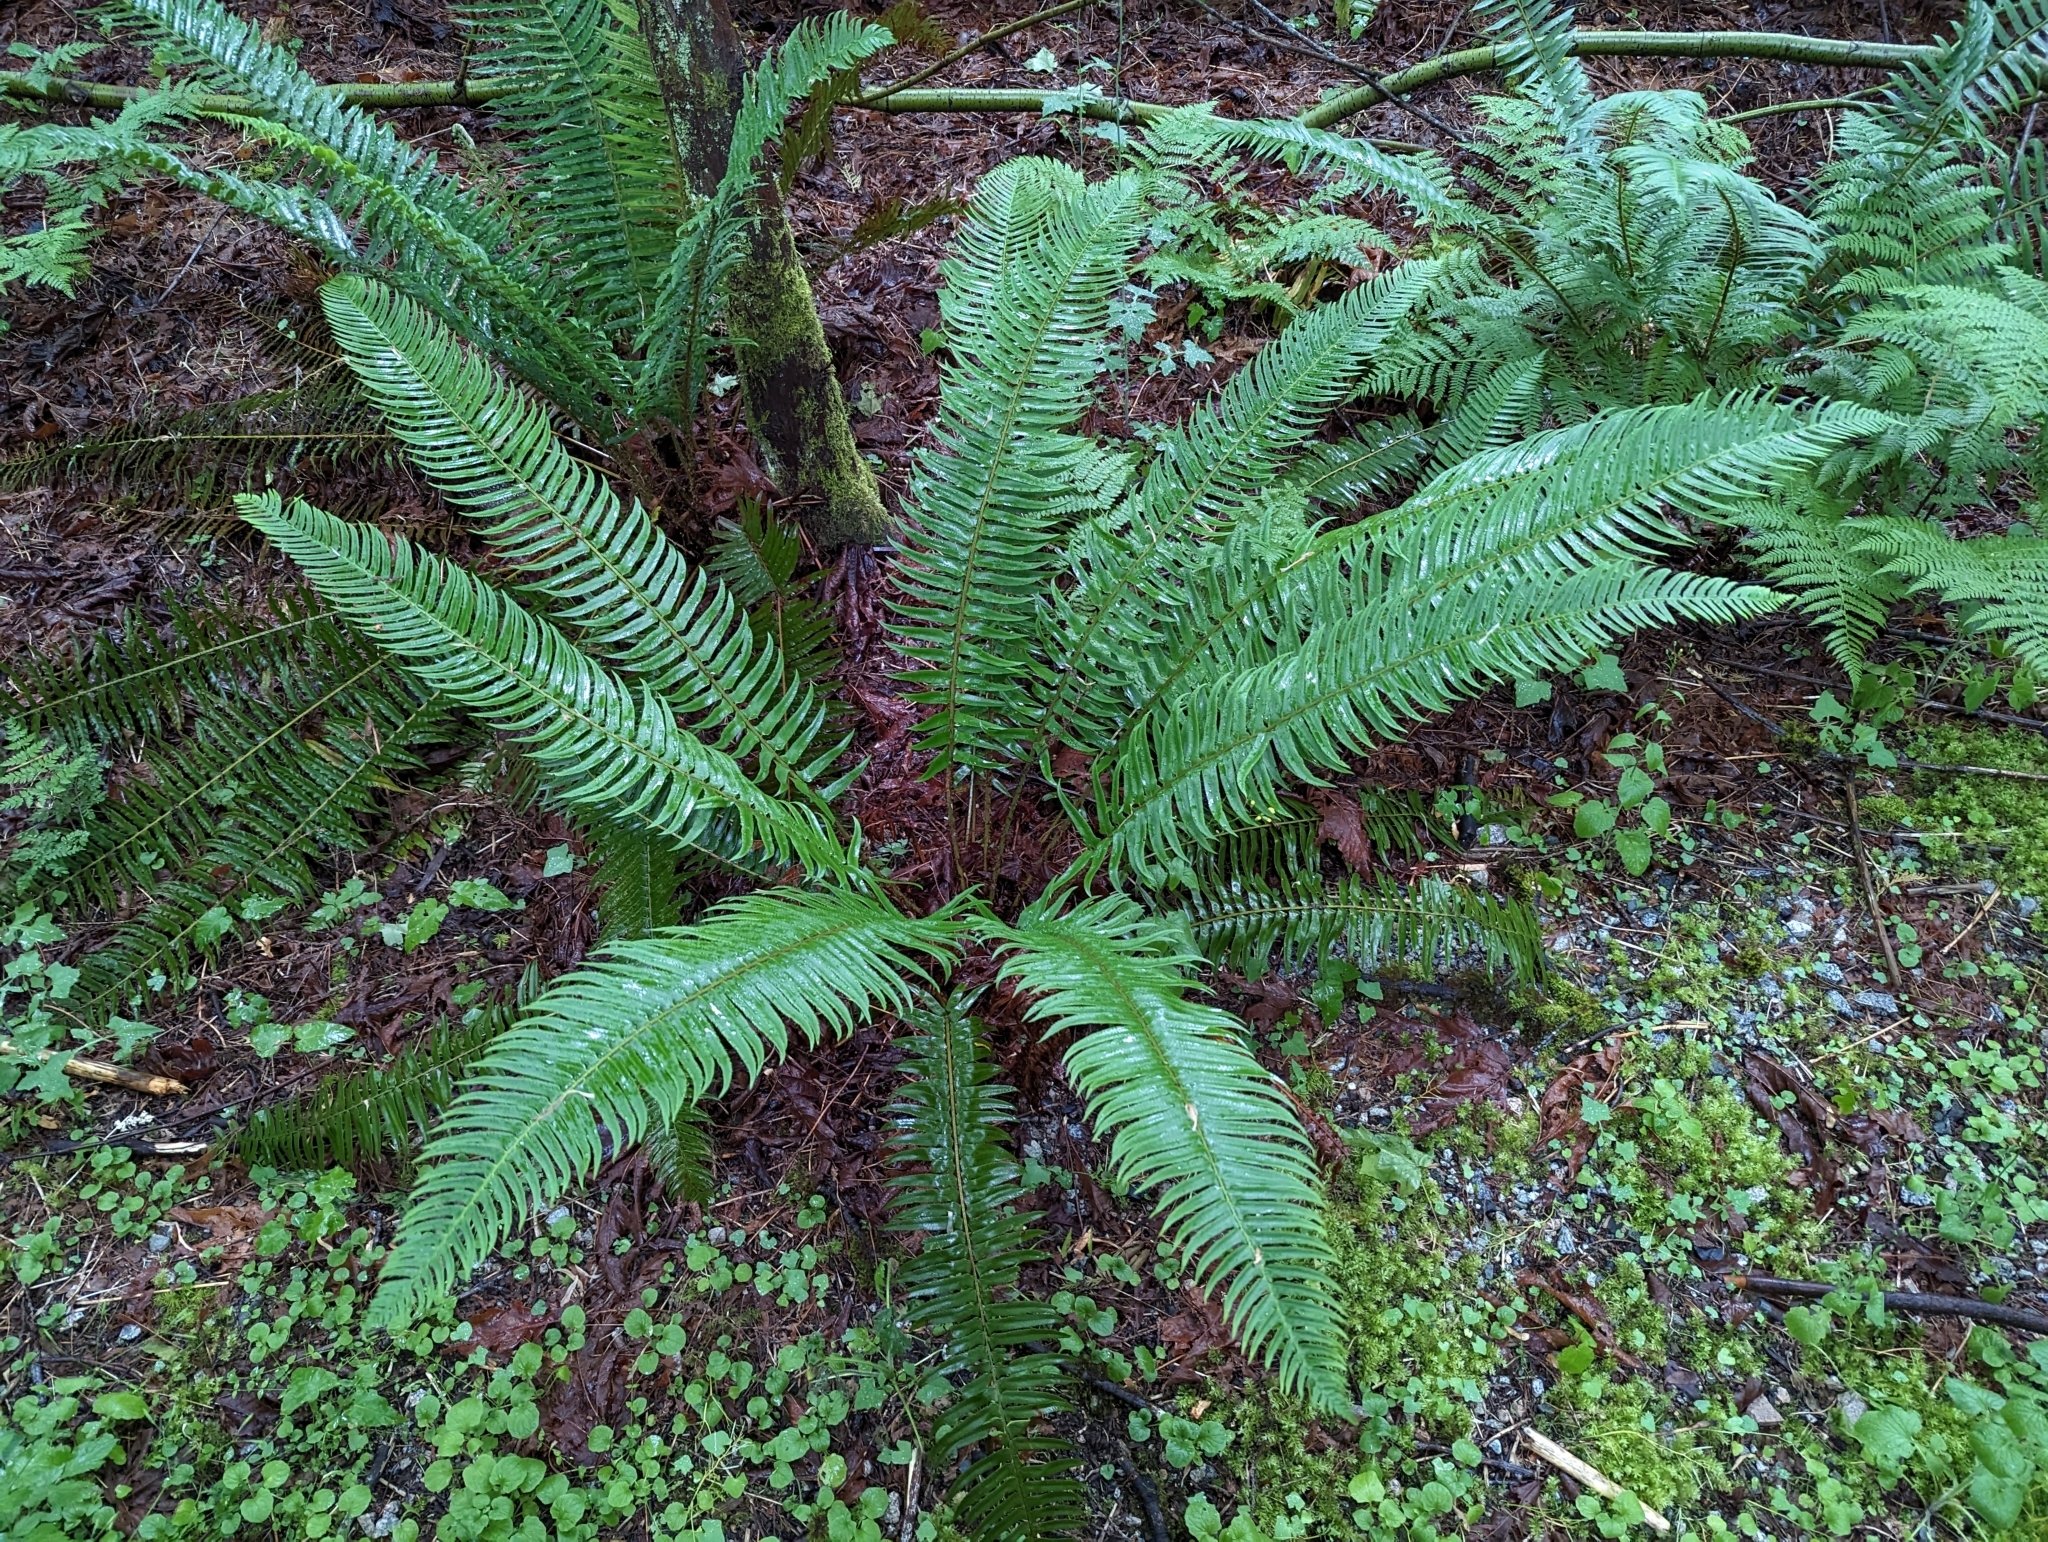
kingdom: Plantae
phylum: Tracheophyta
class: Polypodiopsida
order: Polypodiales
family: Dryopteridaceae
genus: Polystichum
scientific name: Polystichum munitum
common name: Western sword-fern
